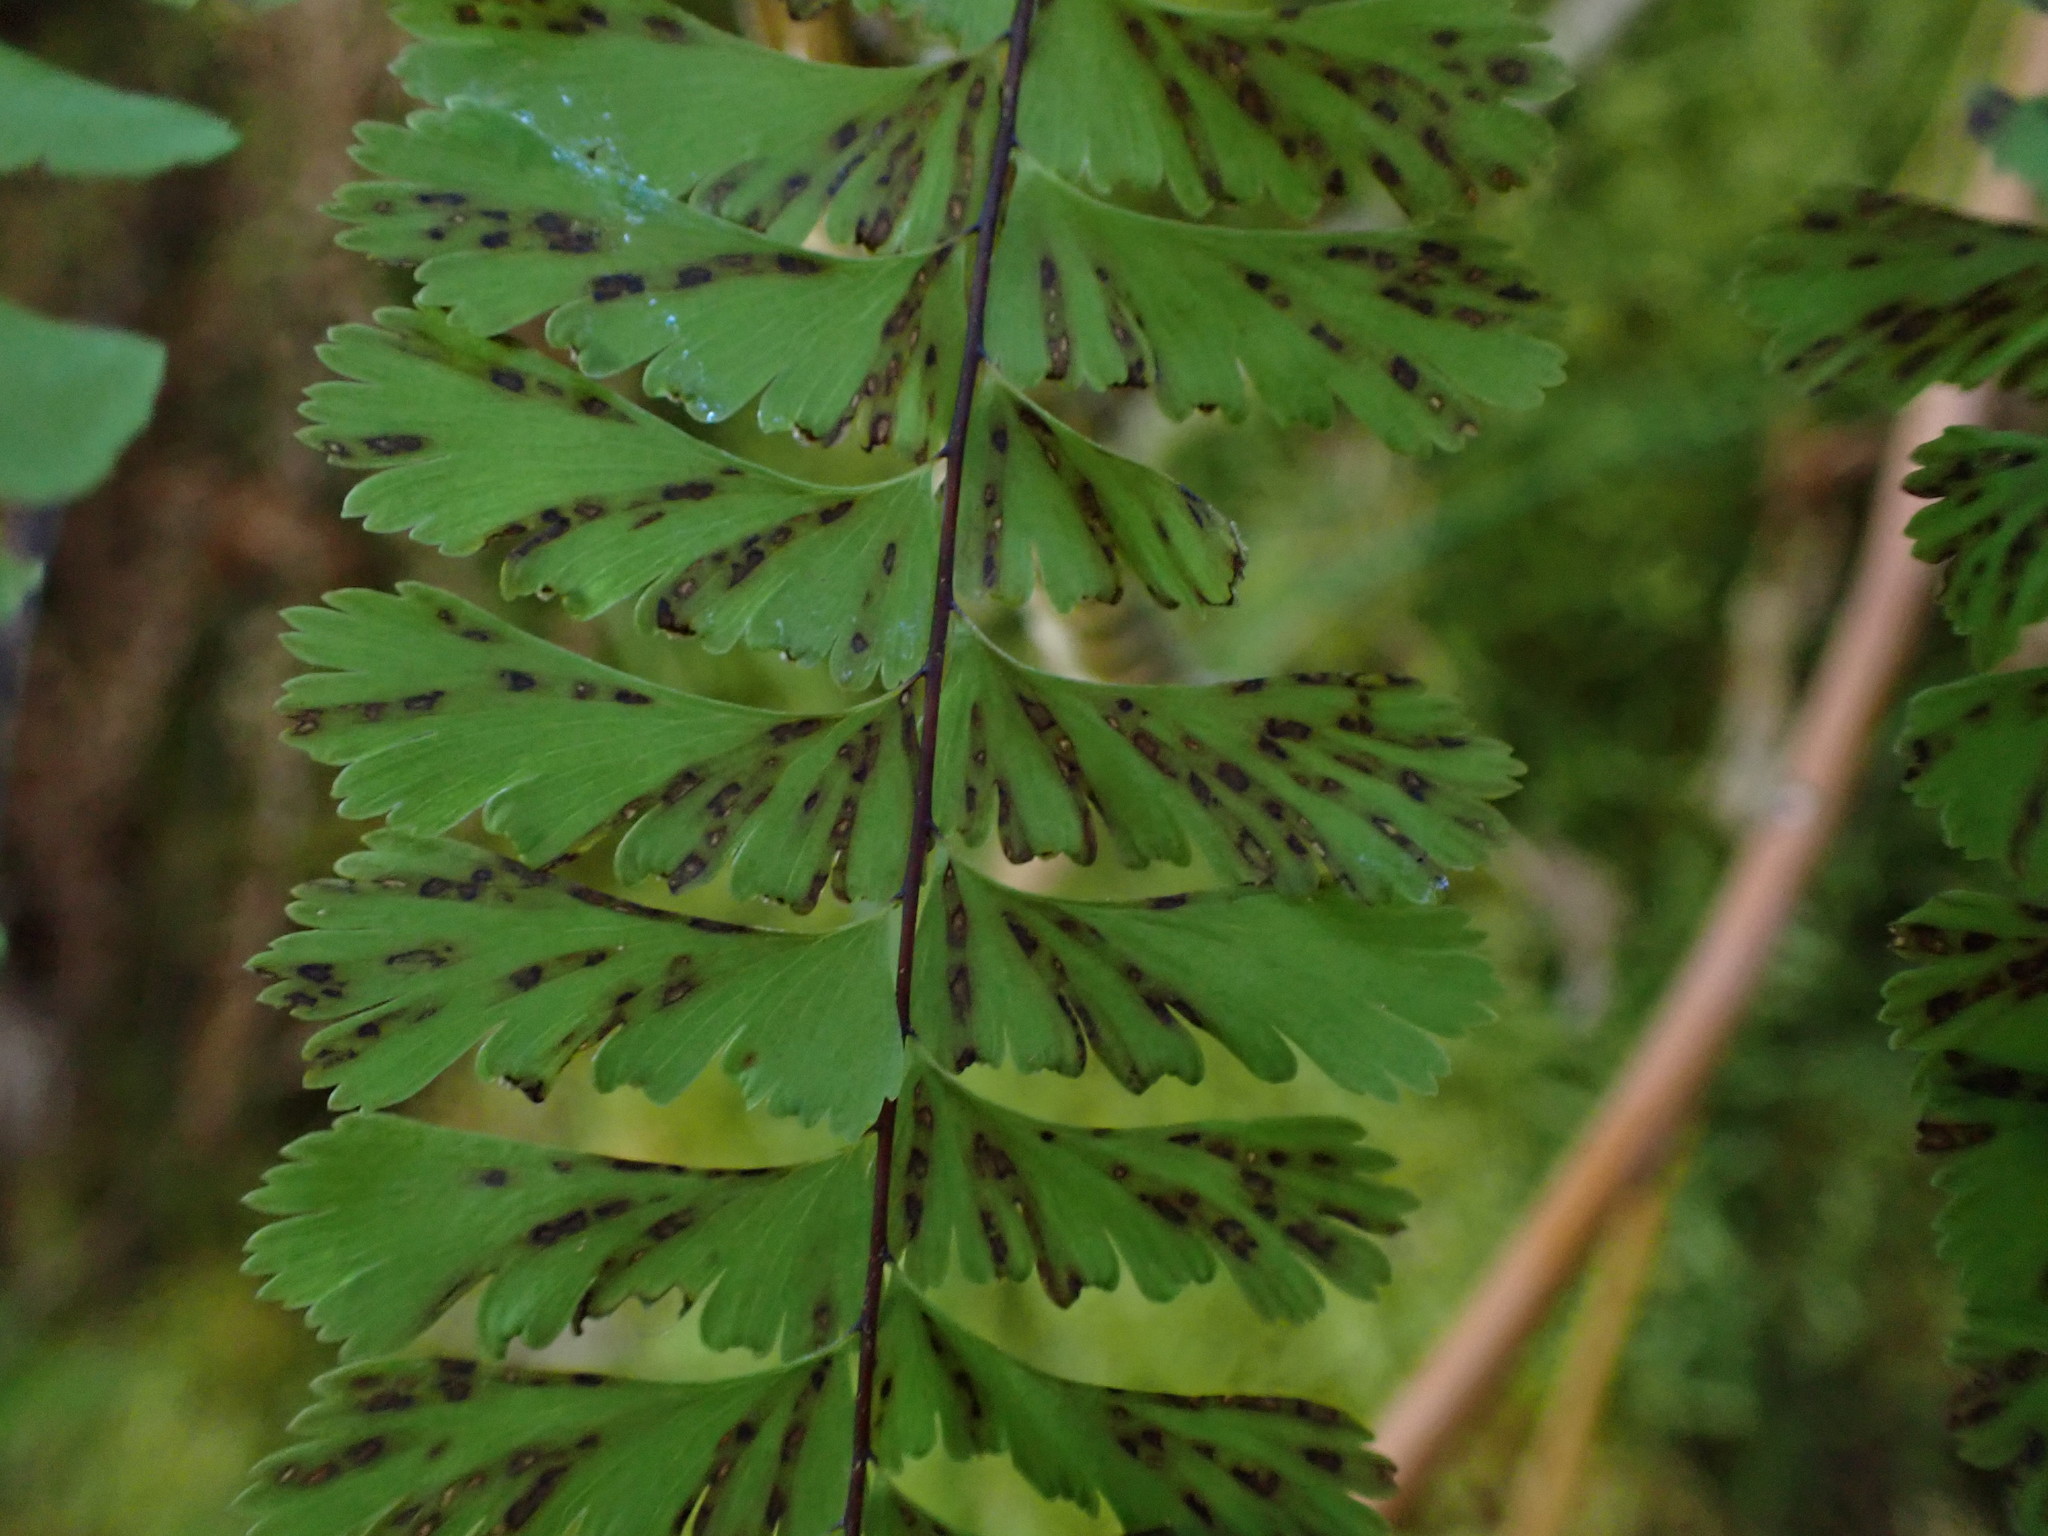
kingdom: Plantae
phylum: Tracheophyta
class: Polypodiopsida
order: Polypodiales
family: Pteridaceae
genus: Adiantum
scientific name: Adiantum aleuticum
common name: Aleutian maidenhair fern
